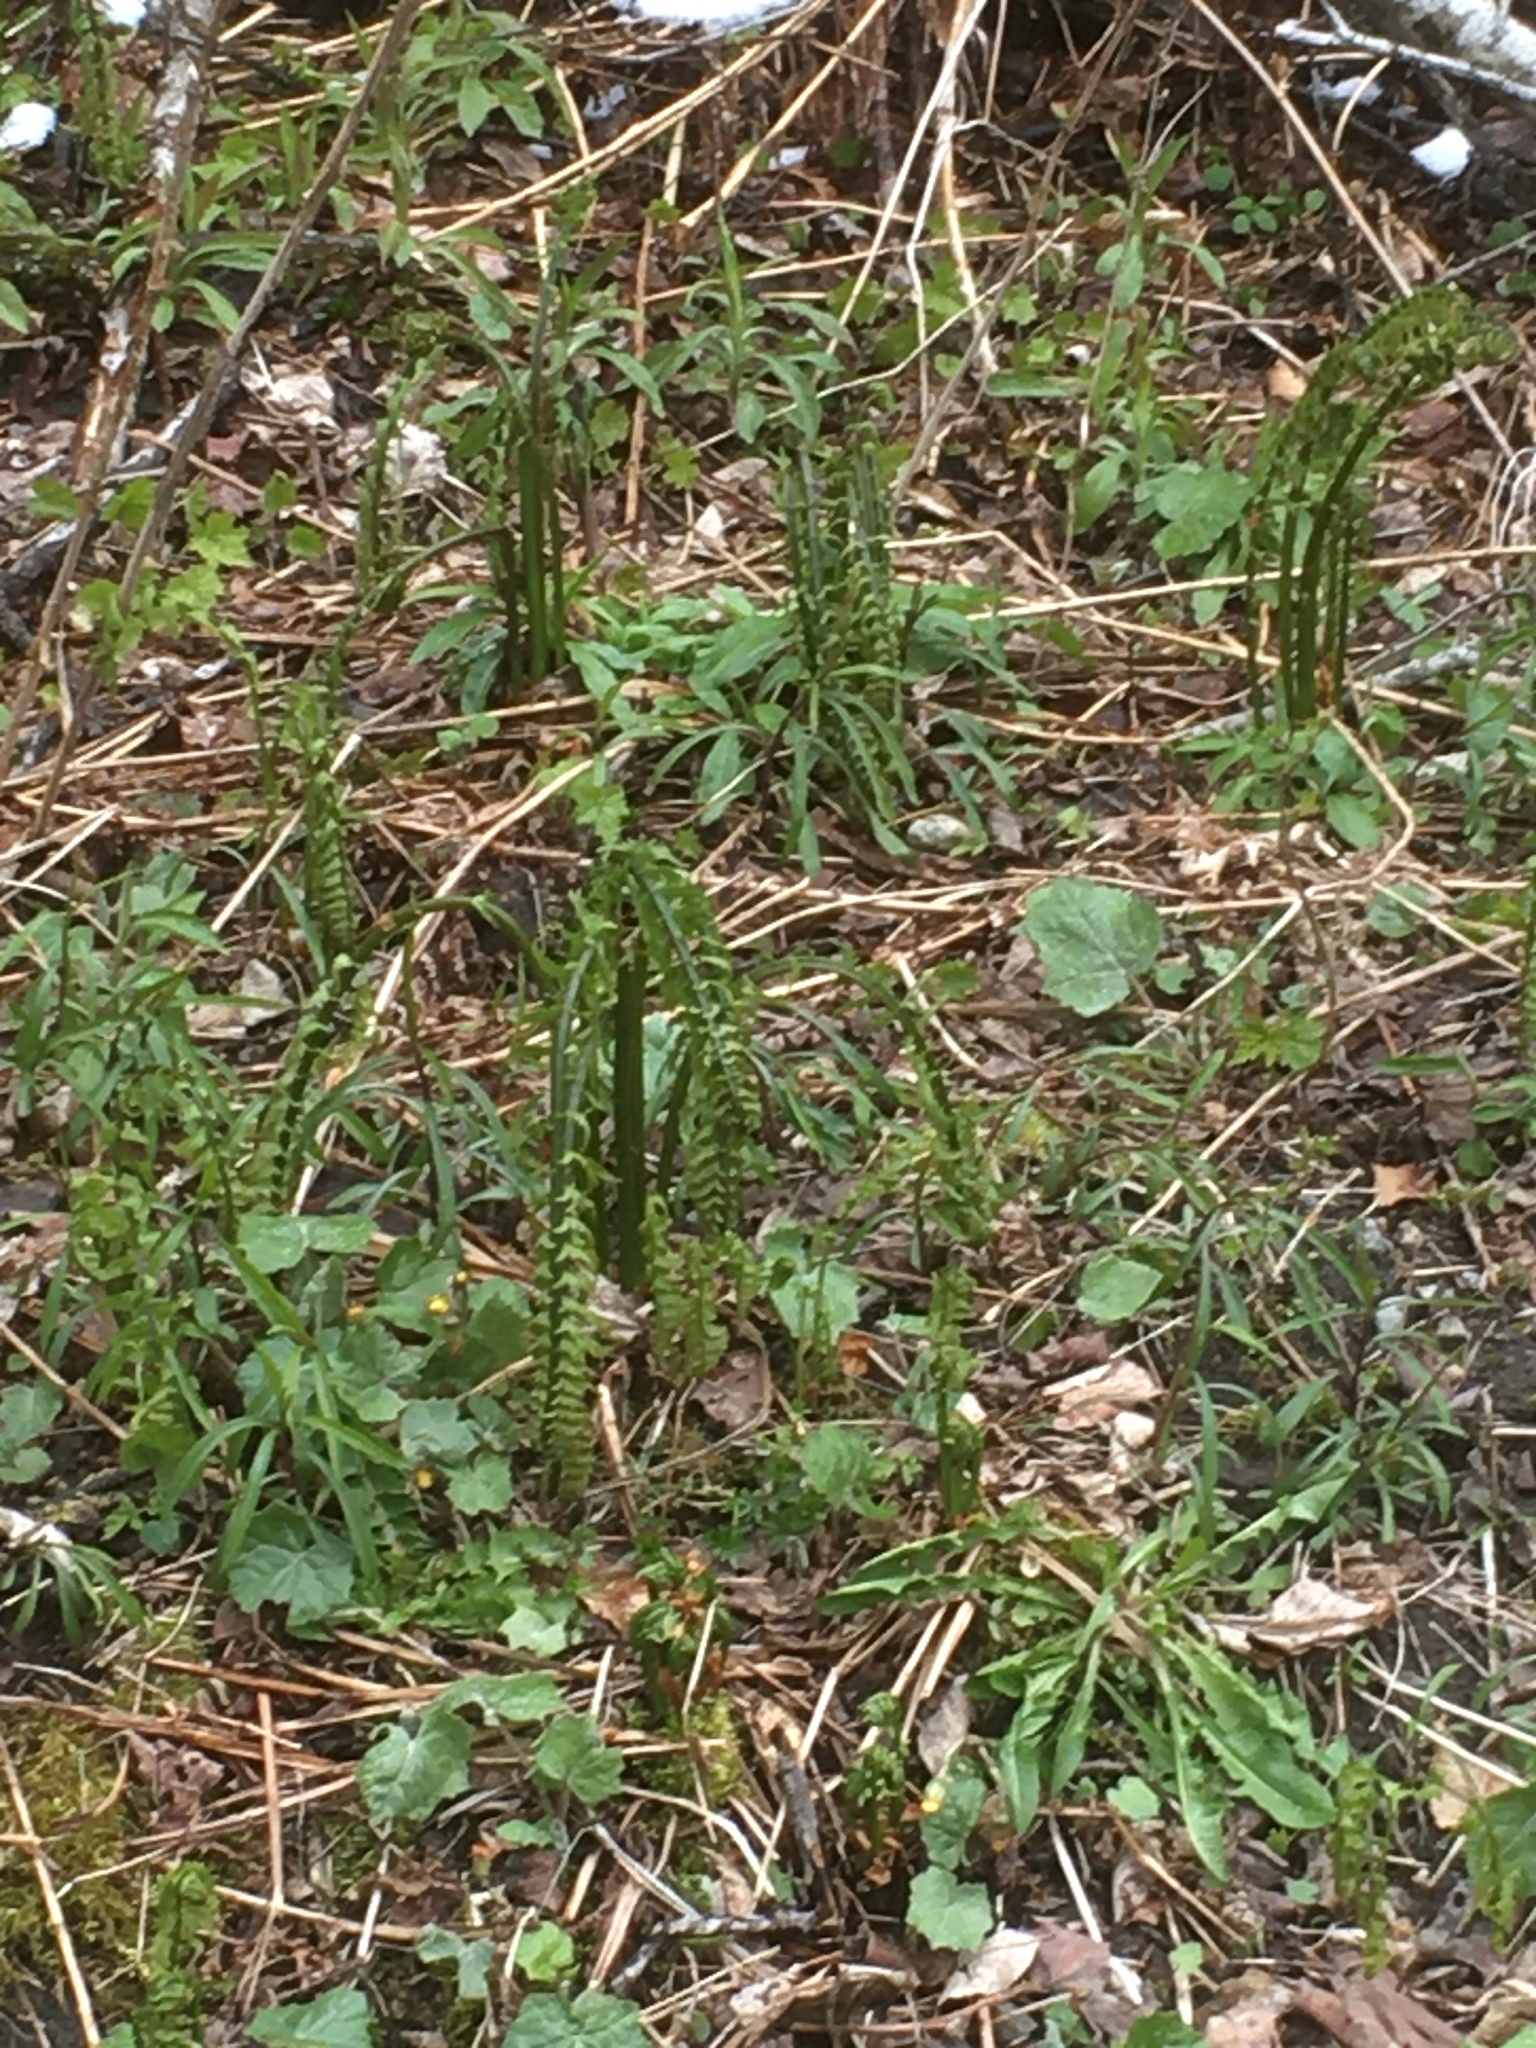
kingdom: Plantae
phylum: Tracheophyta
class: Polypodiopsida
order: Polypodiales
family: Onocleaceae
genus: Matteuccia
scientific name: Matteuccia struthiopteris
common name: Ostrich fern
